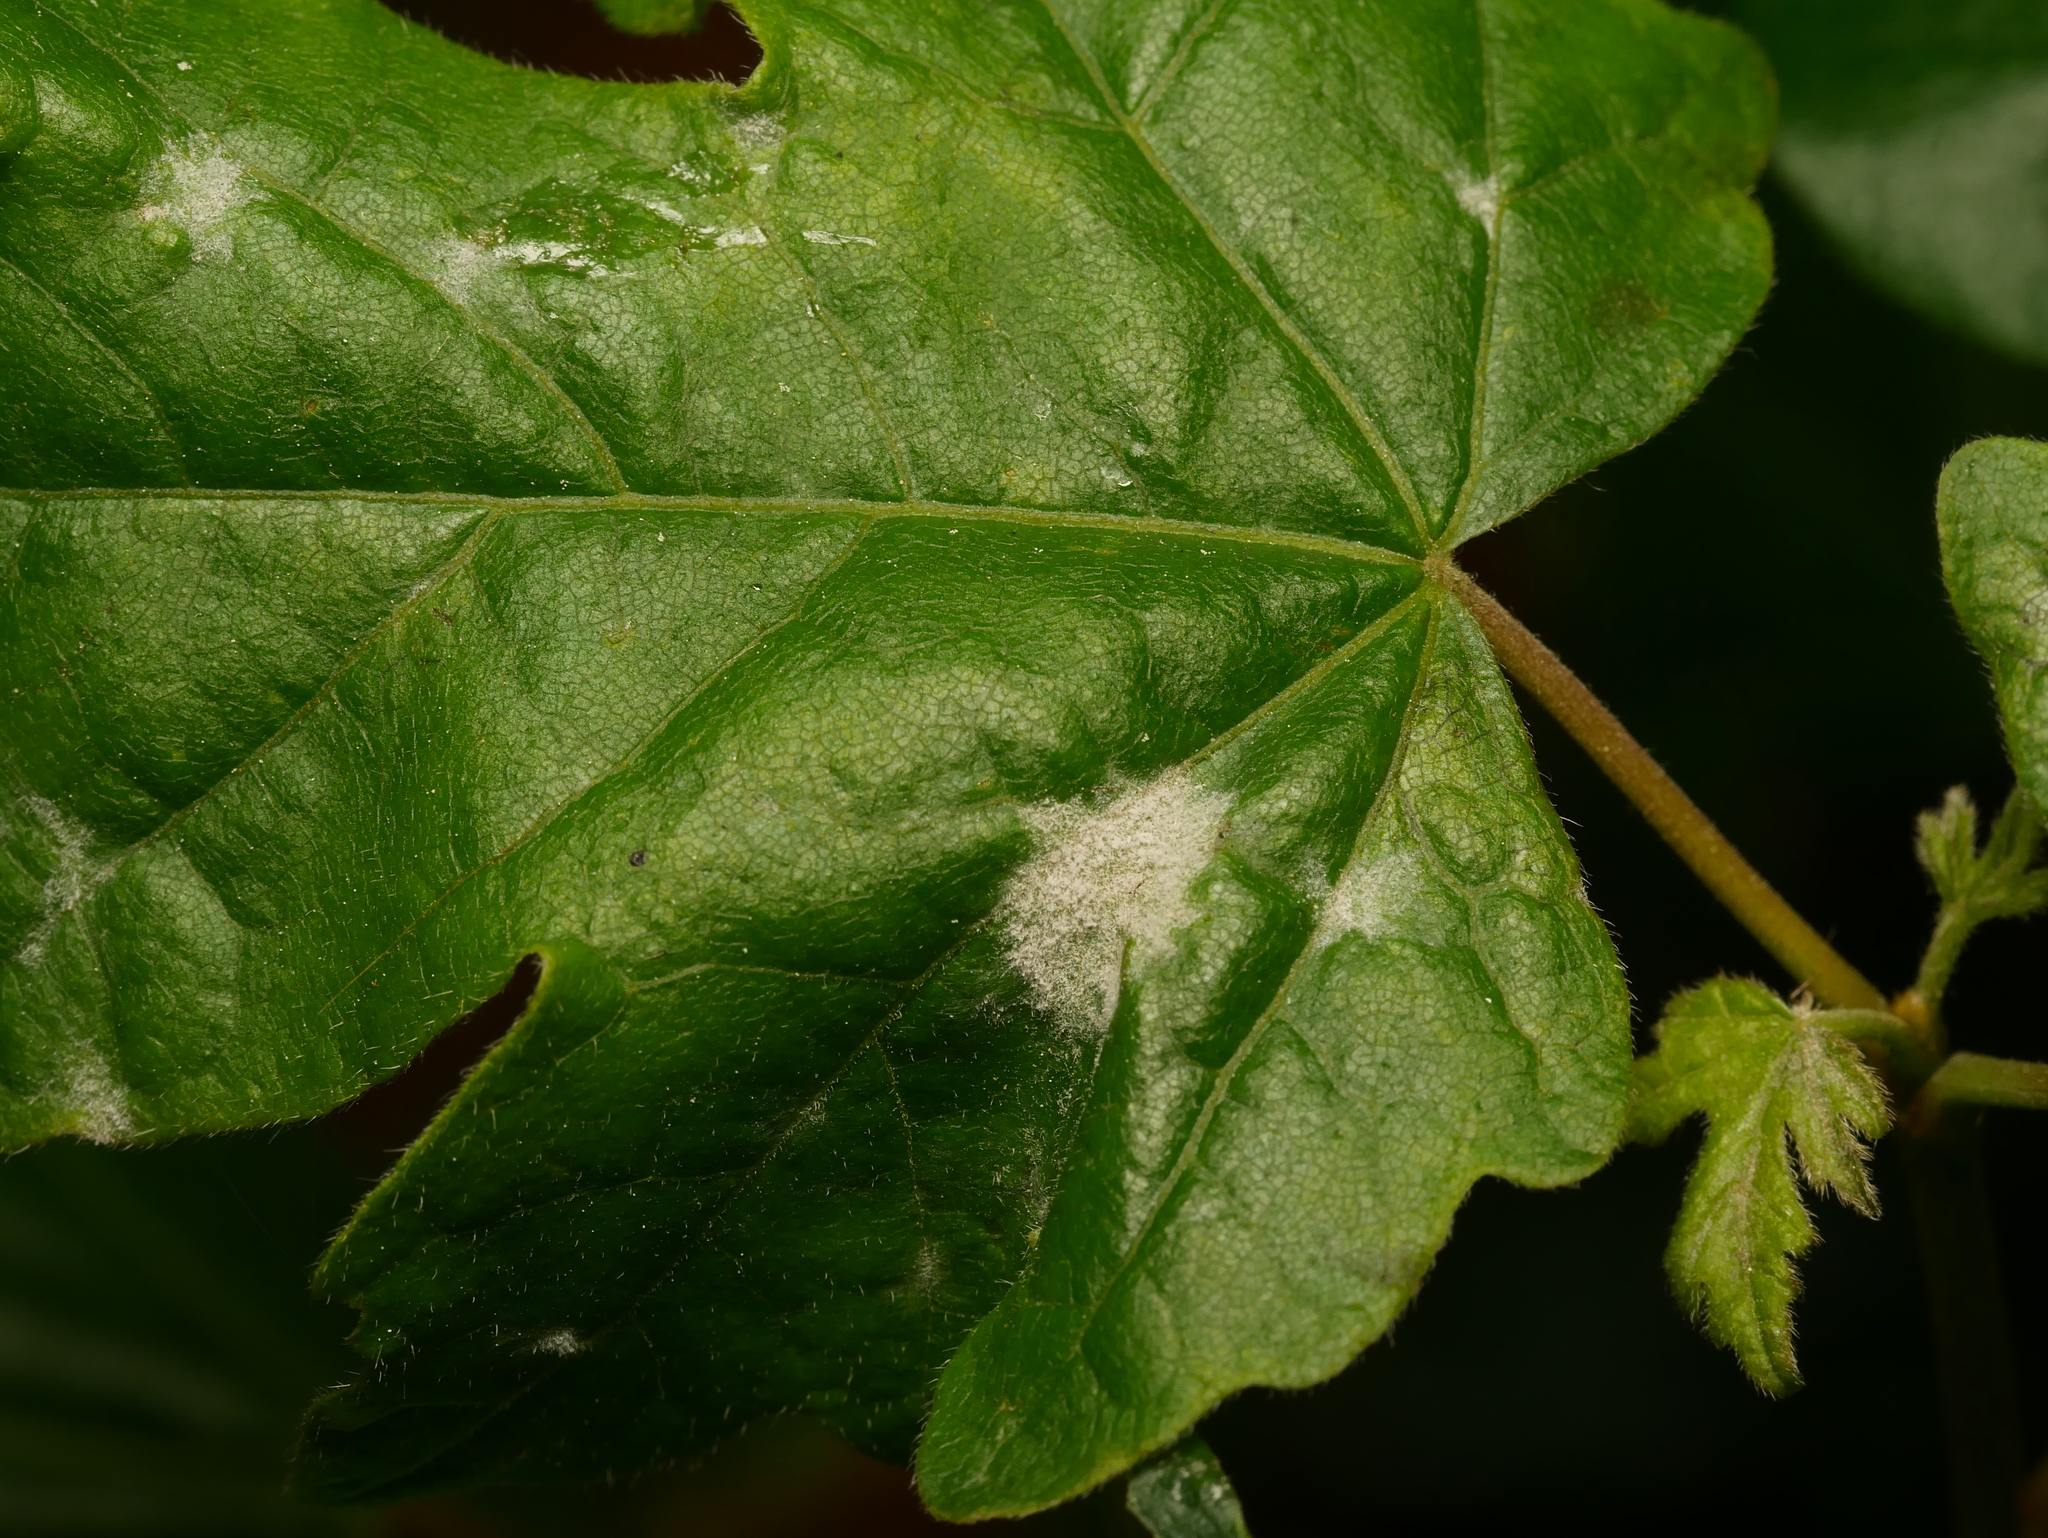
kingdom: Fungi
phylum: Ascomycota
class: Leotiomycetes
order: Helotiales
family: Erysiphaceae
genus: Sawadaea
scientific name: Sawadaea bicornis
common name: Maple mildew
